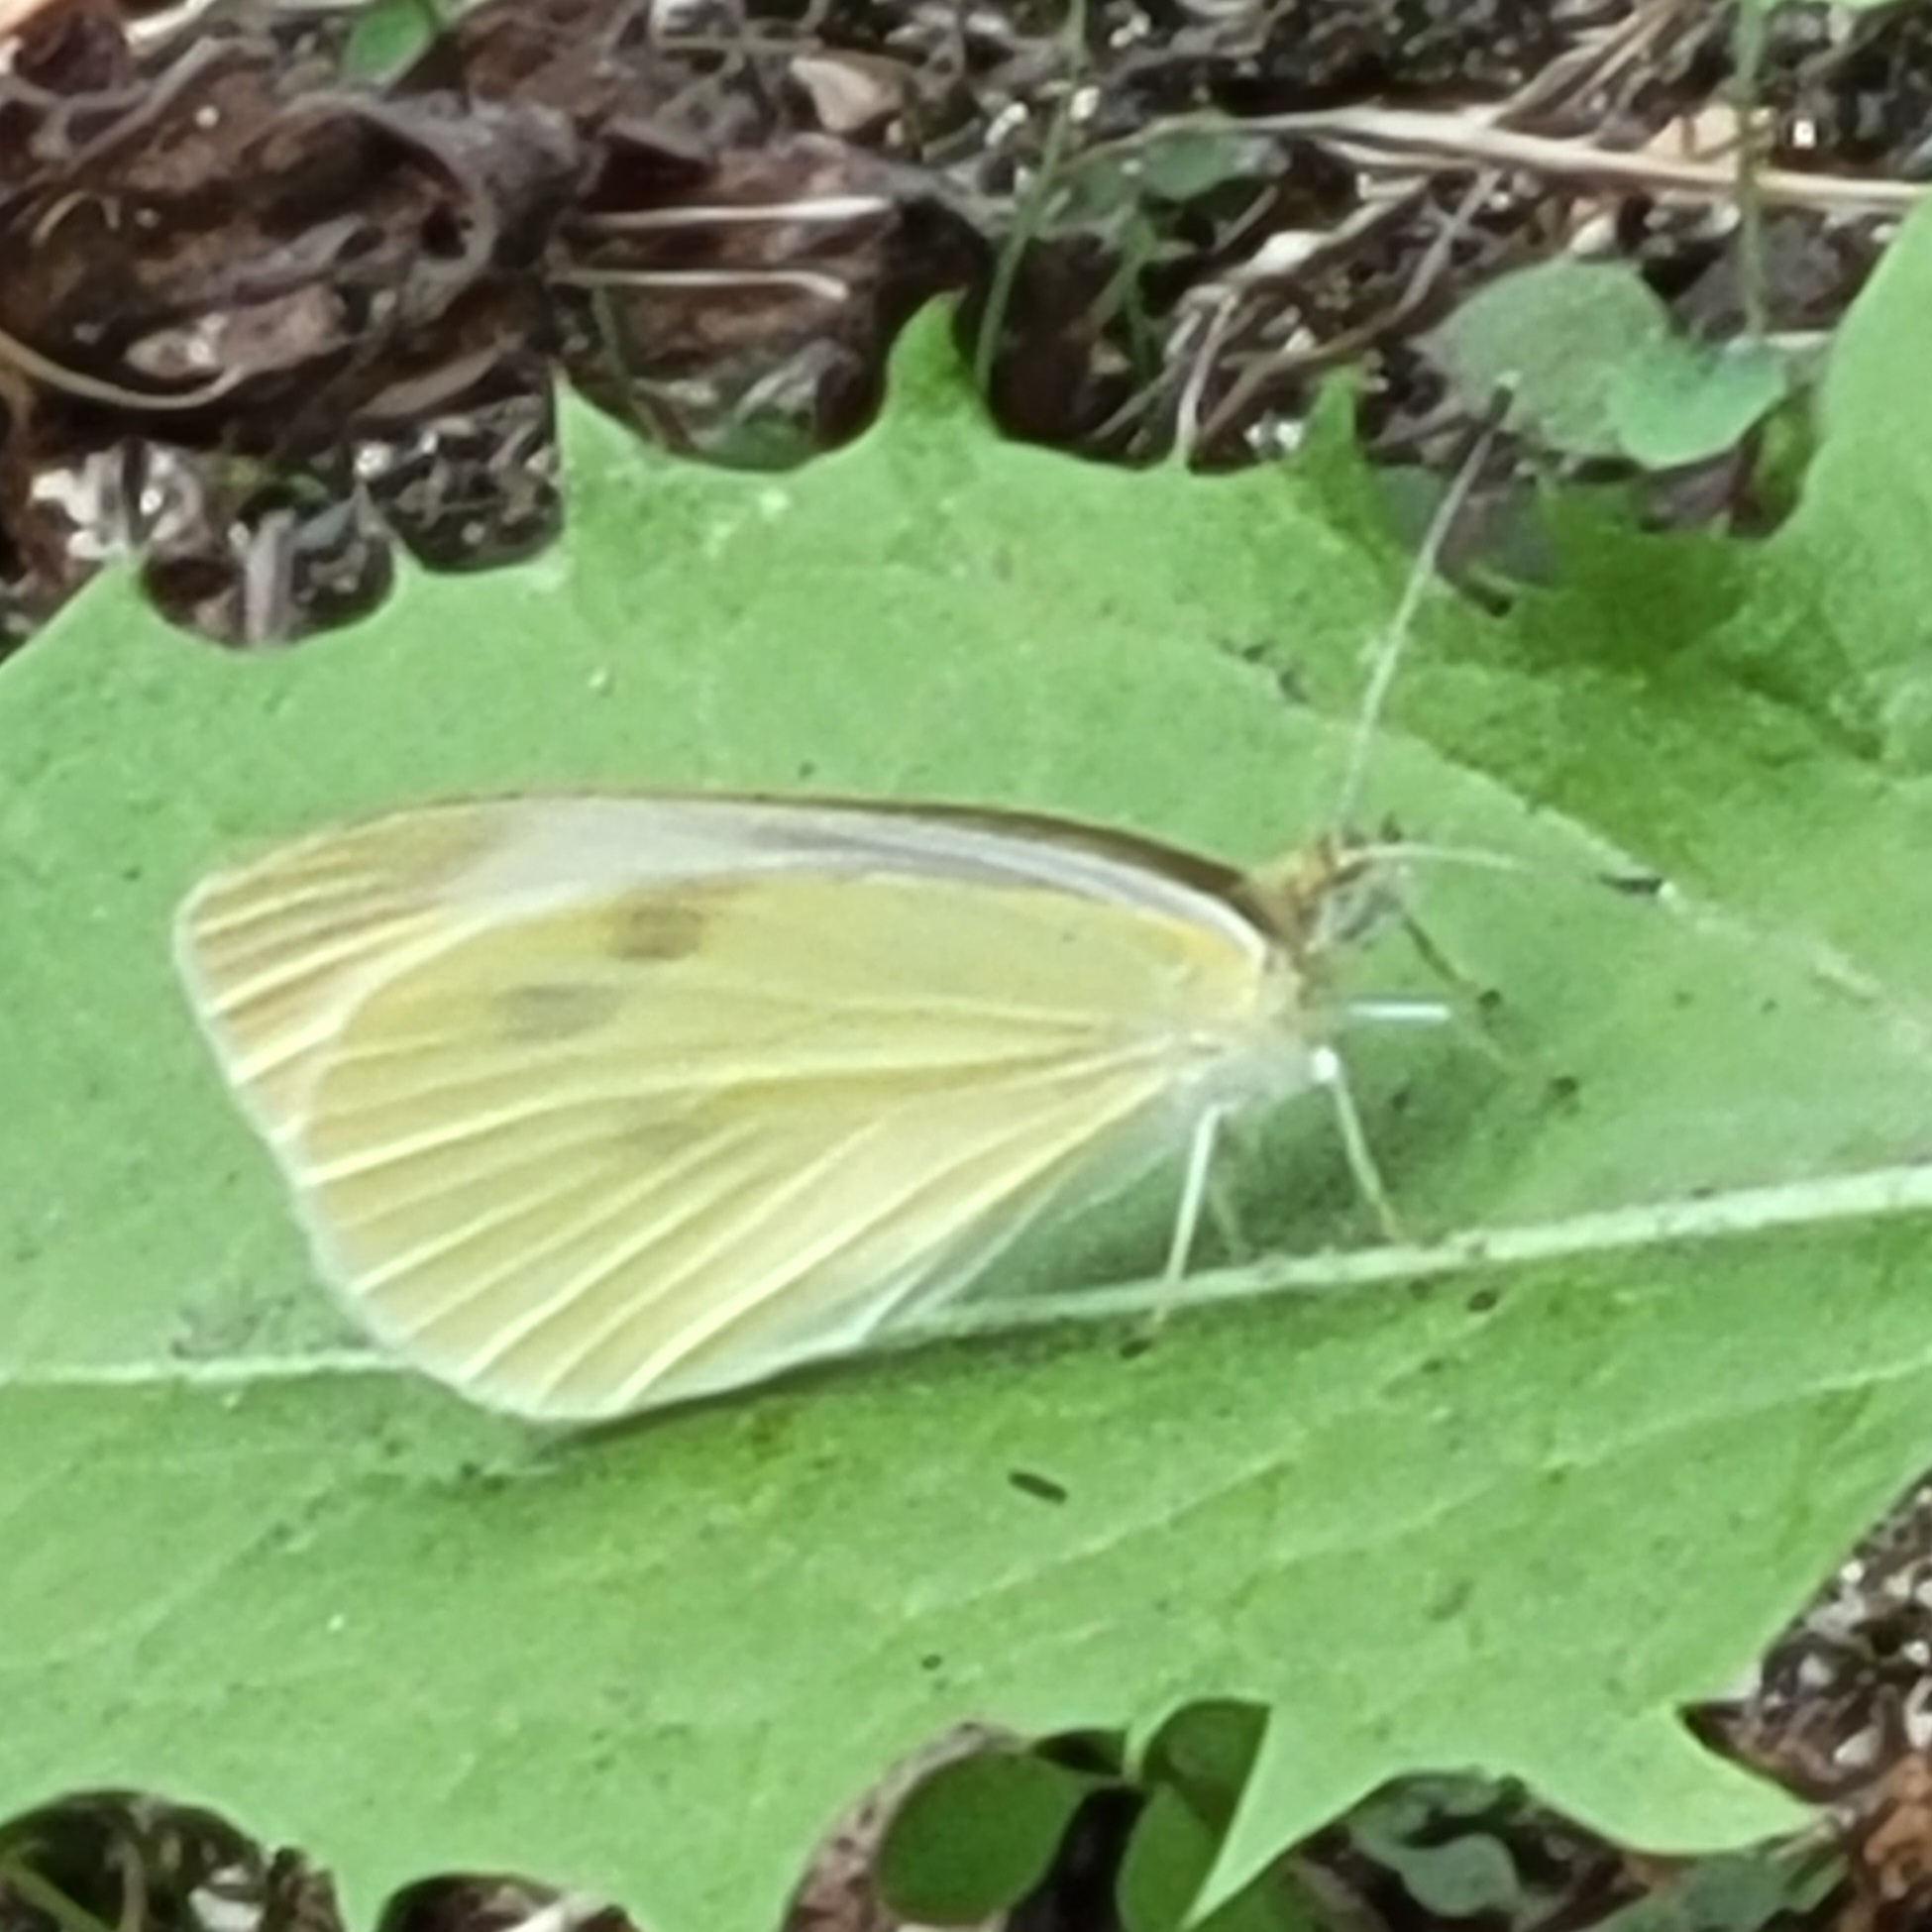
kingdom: Animalia
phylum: Arthropoda
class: Insecta
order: Lepidoptera
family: Pieridae
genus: Pieris
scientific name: Pieris rapae
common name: Small white
